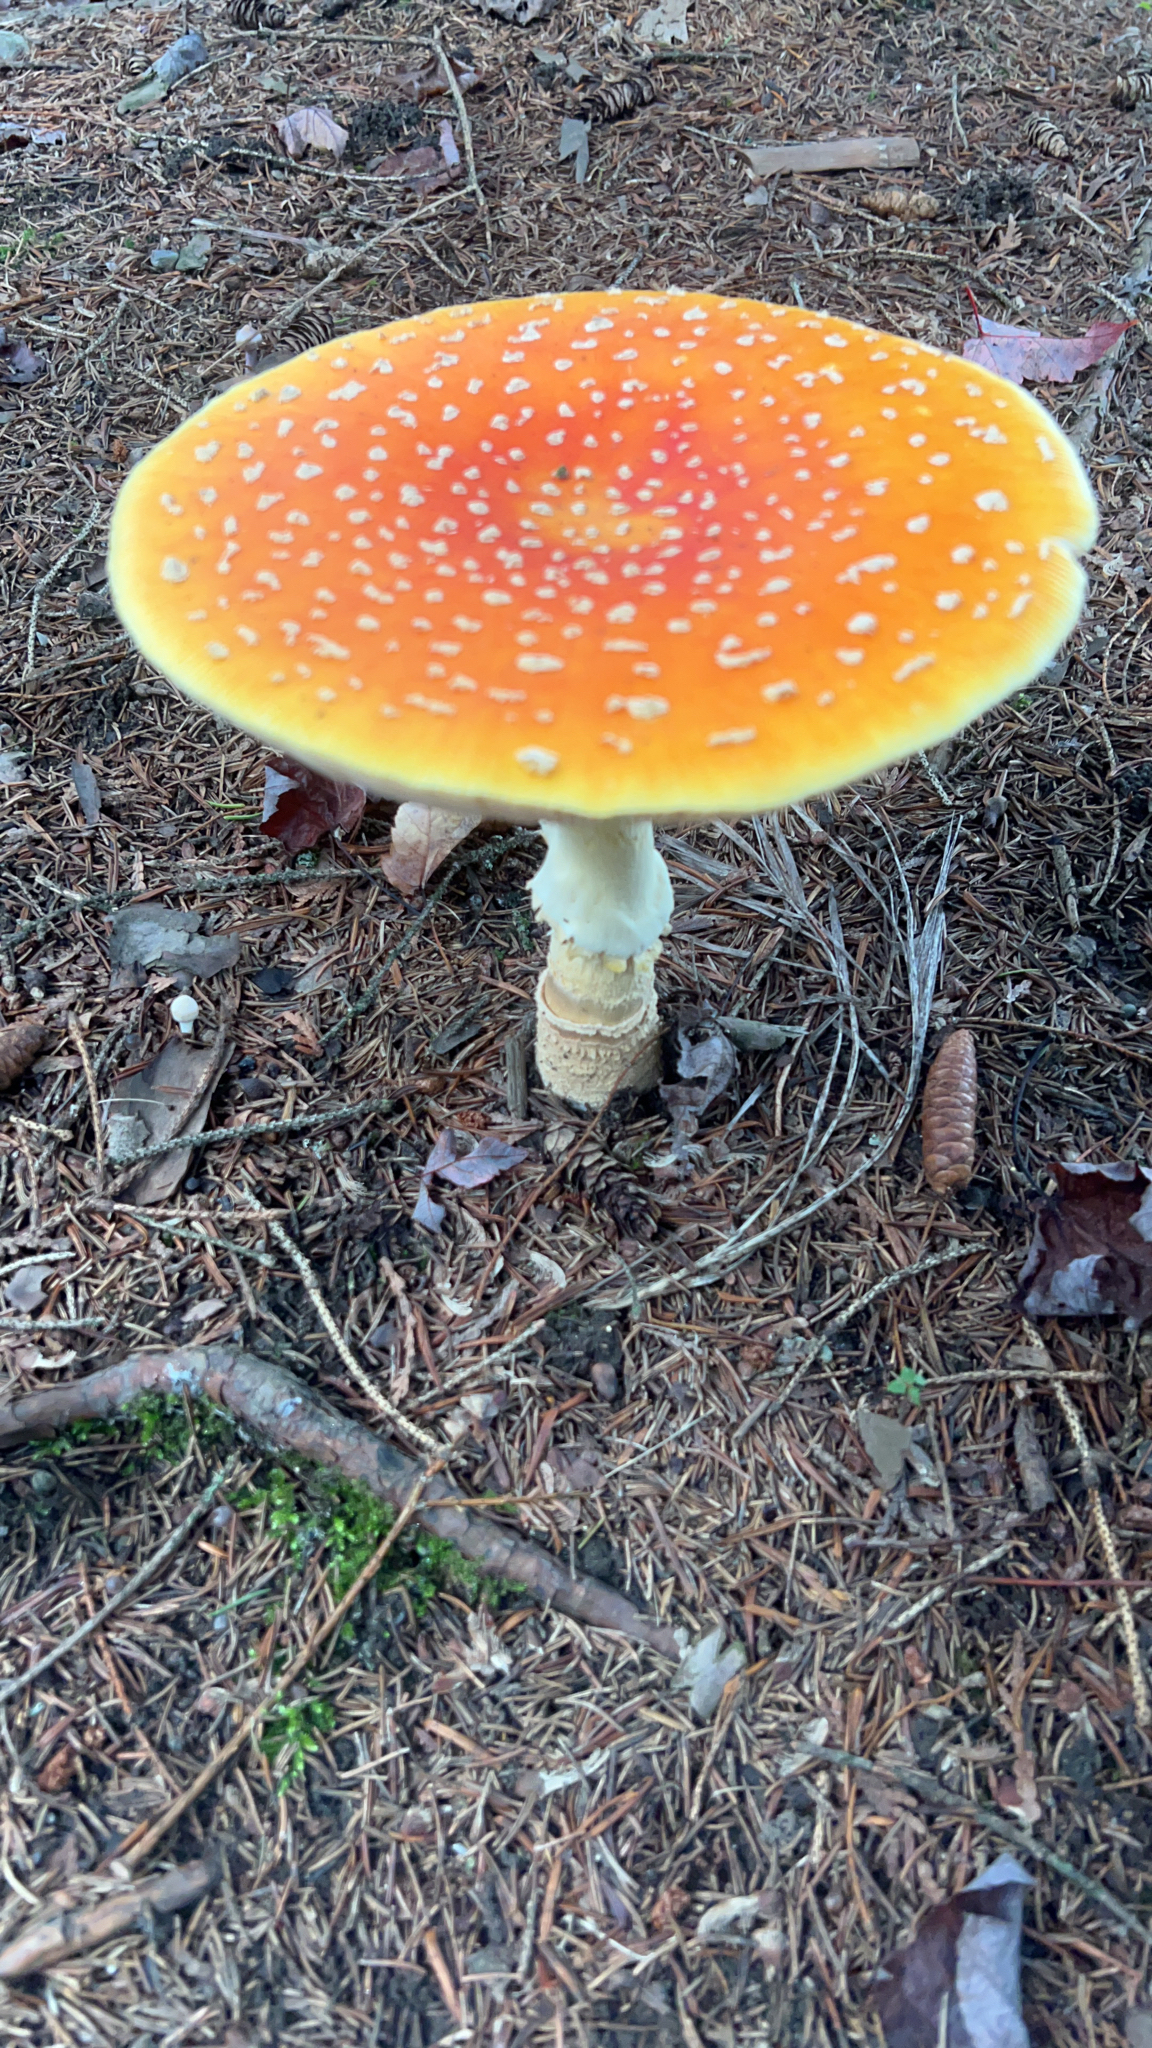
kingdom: Fungi
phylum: Basidiomycota
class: Agaricomycetes
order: Agaricales
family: Amanitaceae
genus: Amanita
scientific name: Amanita muscaria
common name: Fly agaric
